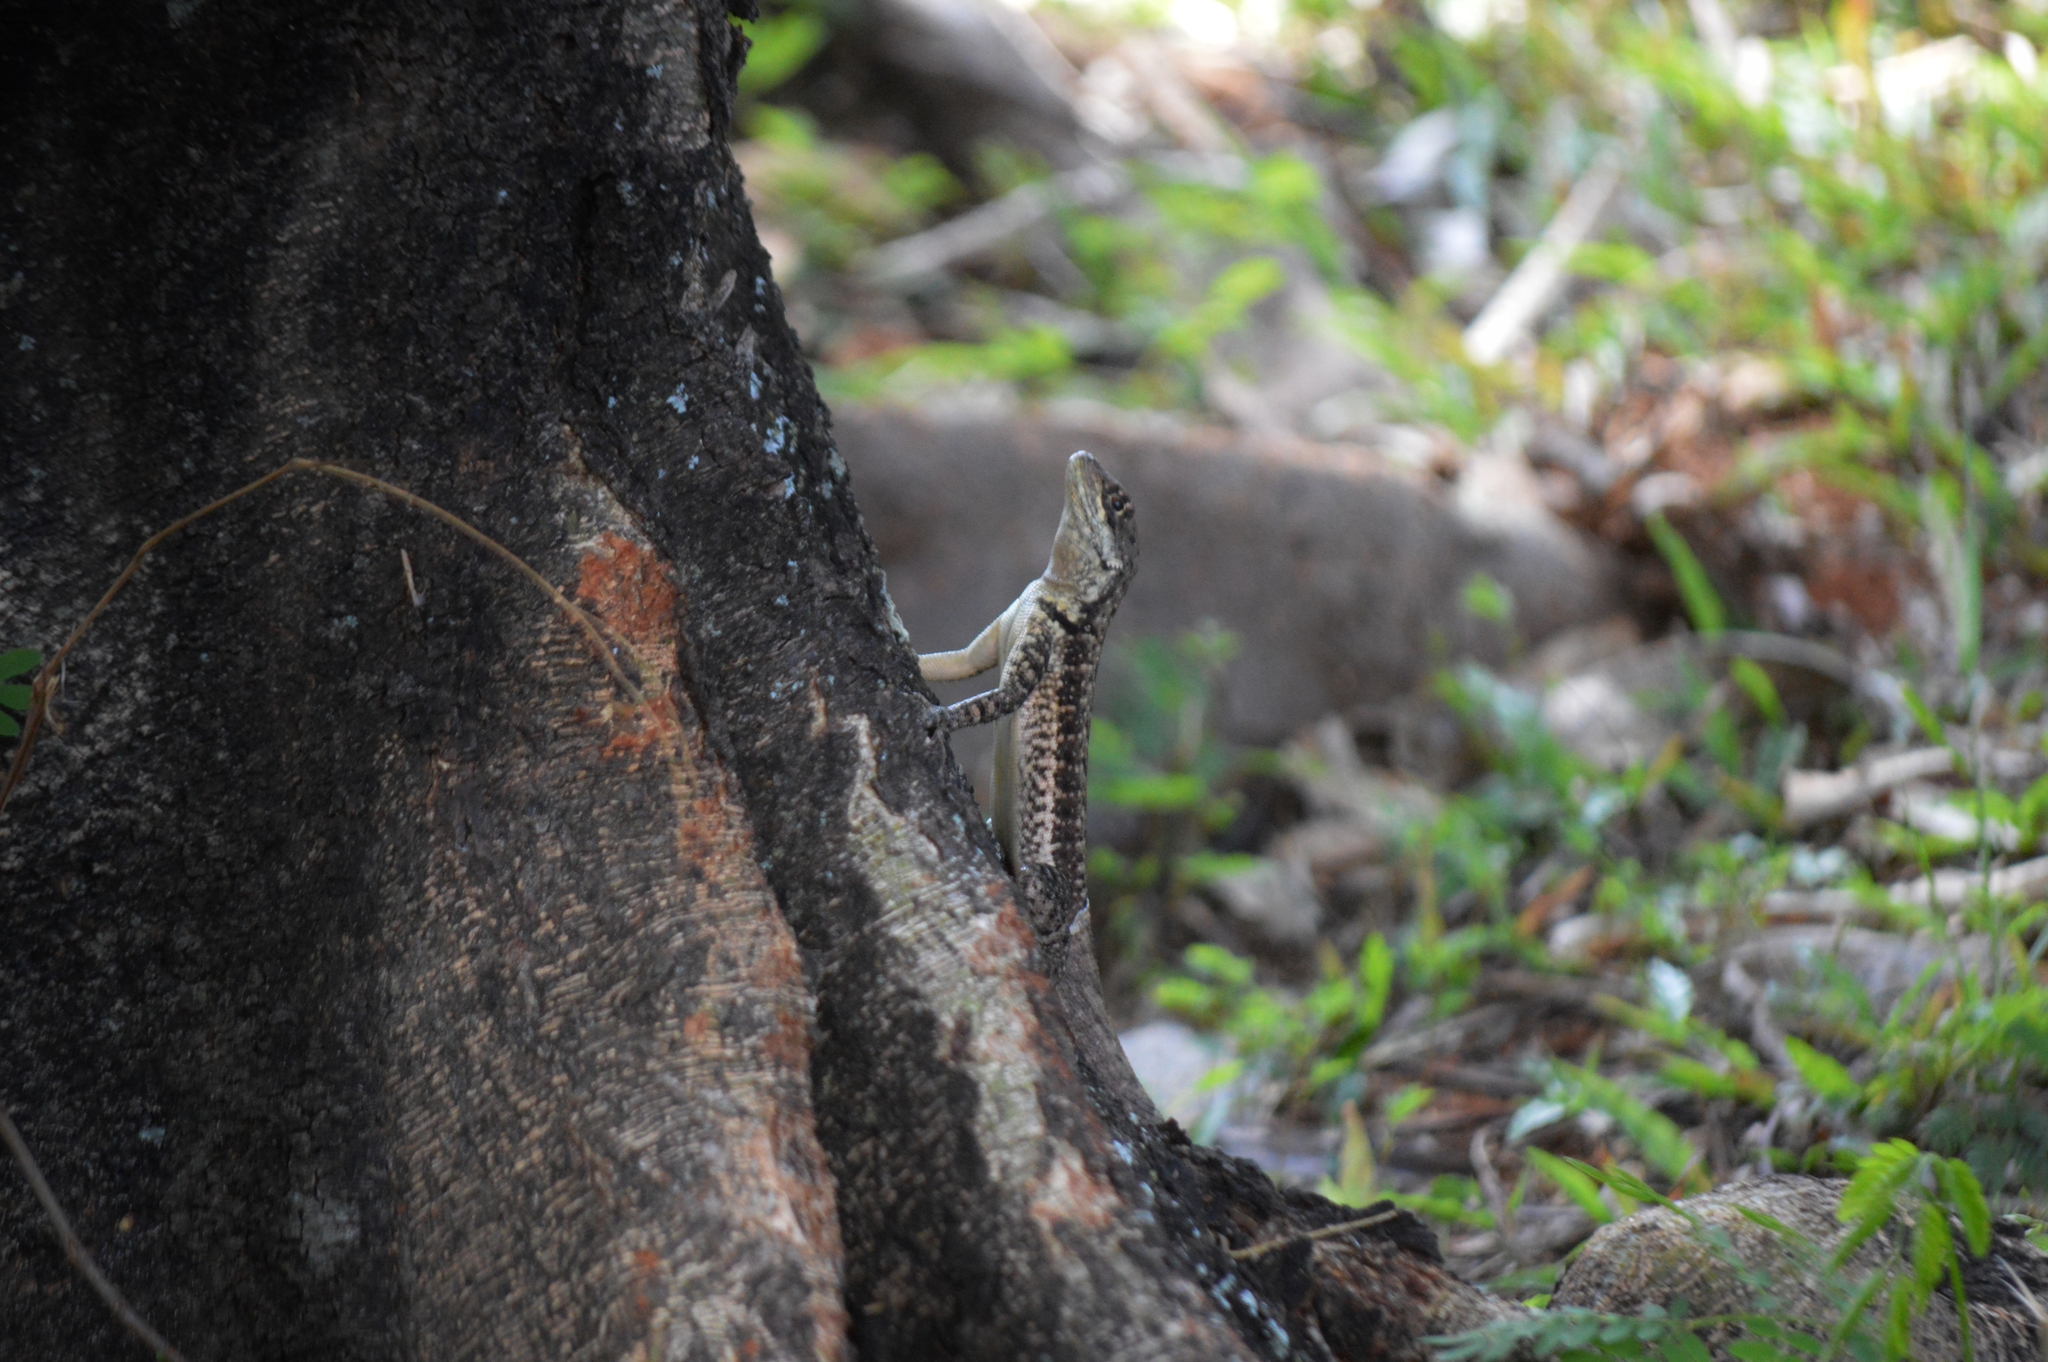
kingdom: Animalia
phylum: Chordata
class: Squamata
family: Tropiduridae
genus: Tropidurus
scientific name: Tropidurus torquatus
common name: Amazon lava lizard
